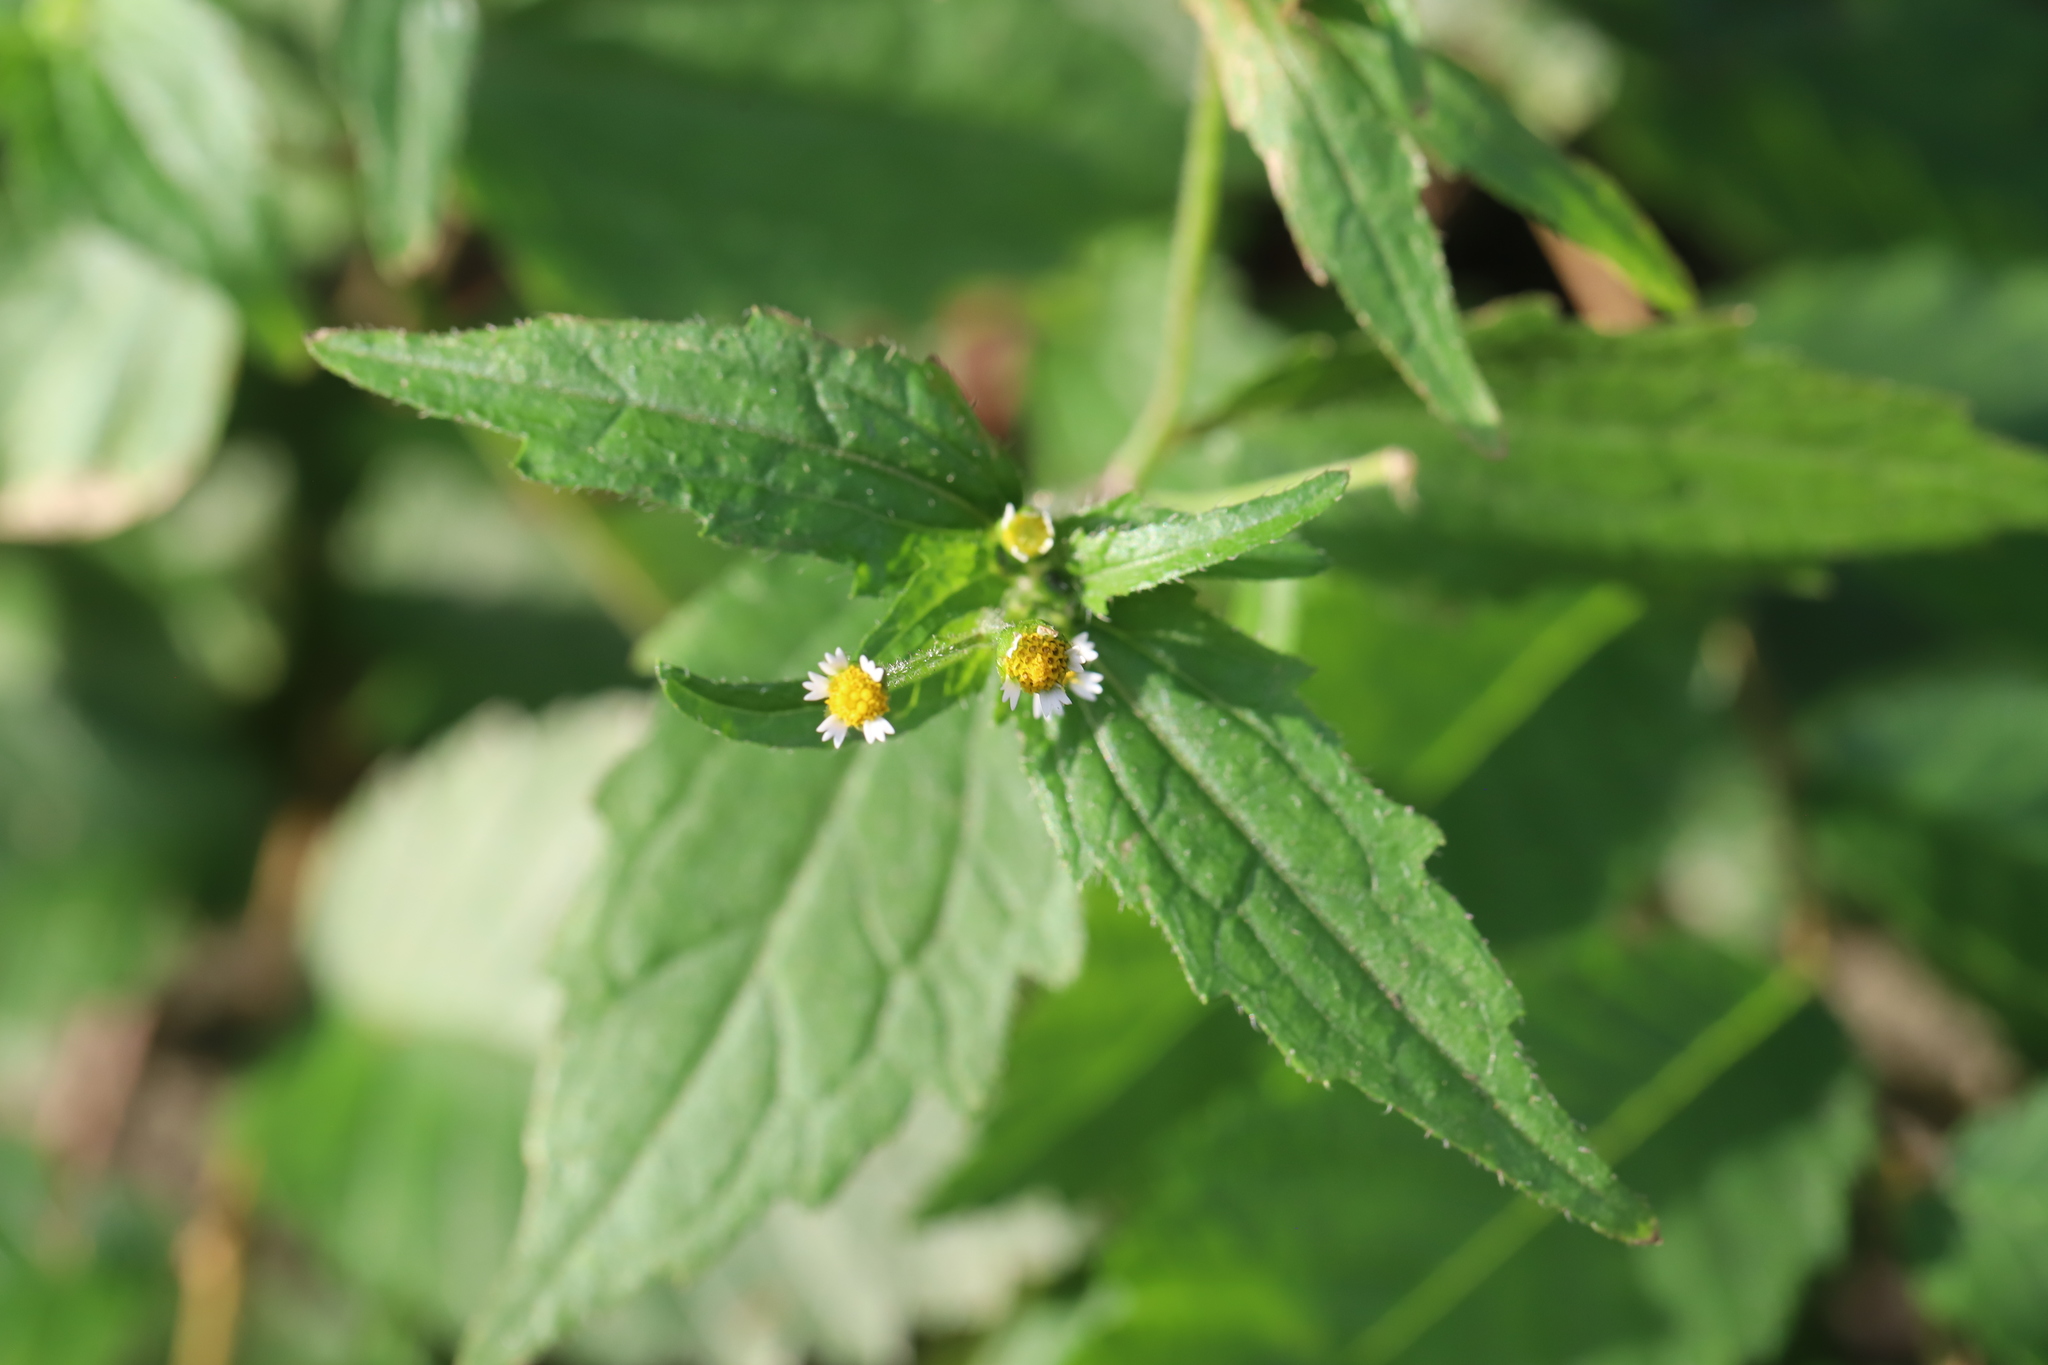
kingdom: Plantae
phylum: Tracheophyta
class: Magnoliopsida
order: Asterales
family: Asteraceae
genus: Galinsoga
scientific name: Galinsoga quadriradiata
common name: Shaggy soldier
